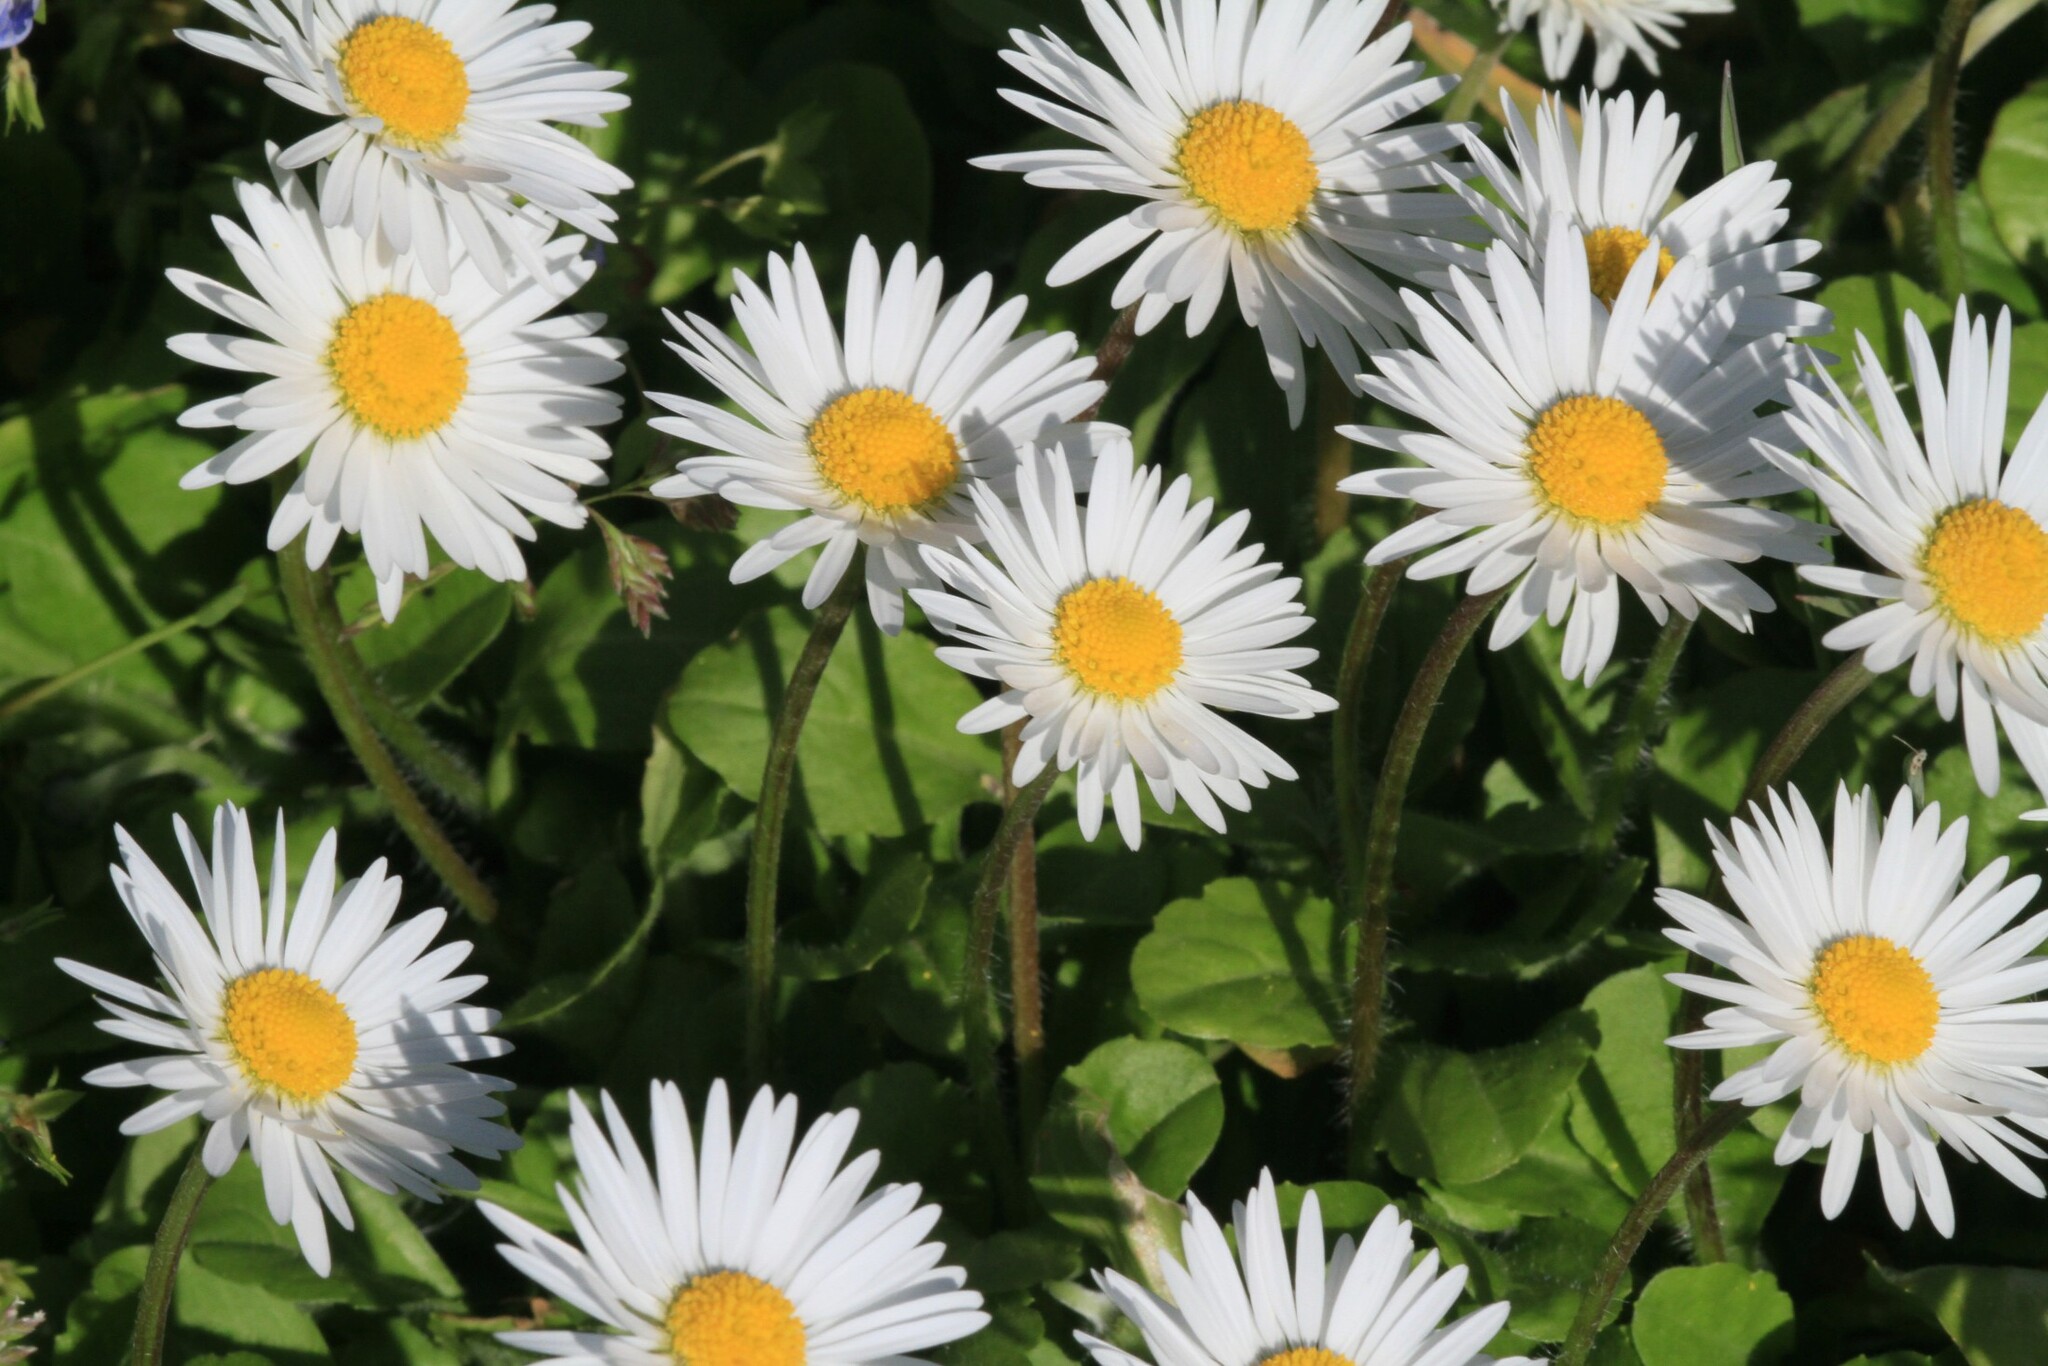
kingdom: Plantae
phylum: Tracheophyta
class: Magnoliopsida
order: Asterales
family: Asteraceae
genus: Bellis
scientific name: Bellis perennis
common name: Lawndaisy
